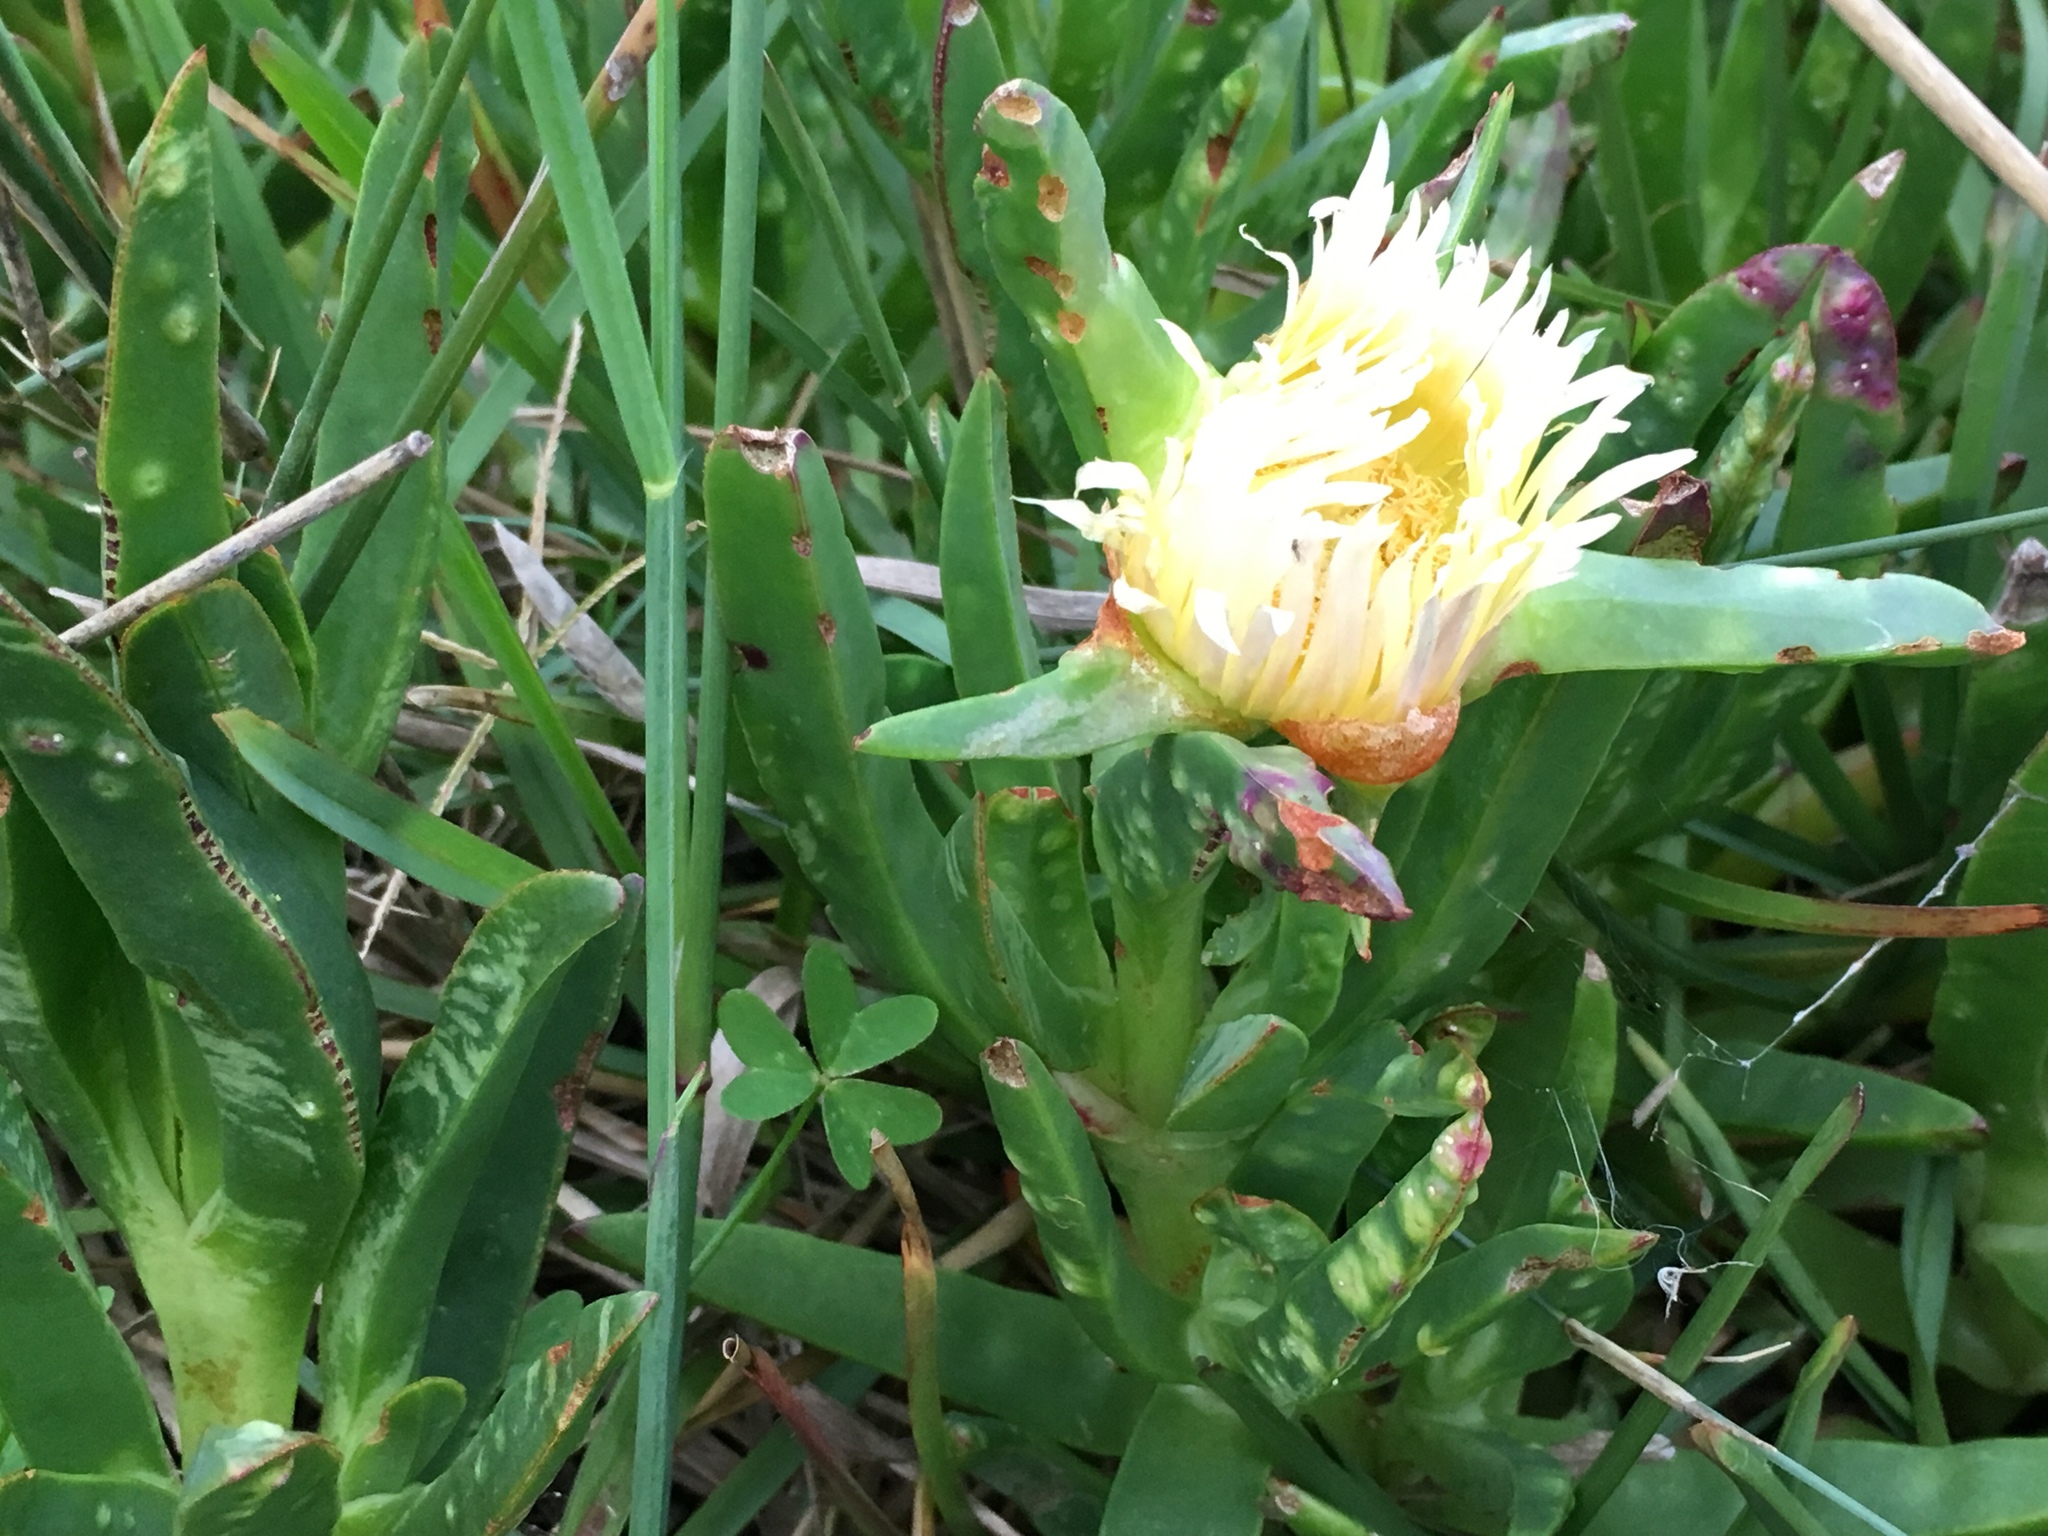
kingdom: Plantae
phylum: Tracheophyta
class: Magnoliopsida
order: Caryophyllales
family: Aizoaceae
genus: Carpobrotus
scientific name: Carpobrotus edulis
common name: Hottentot-fig
